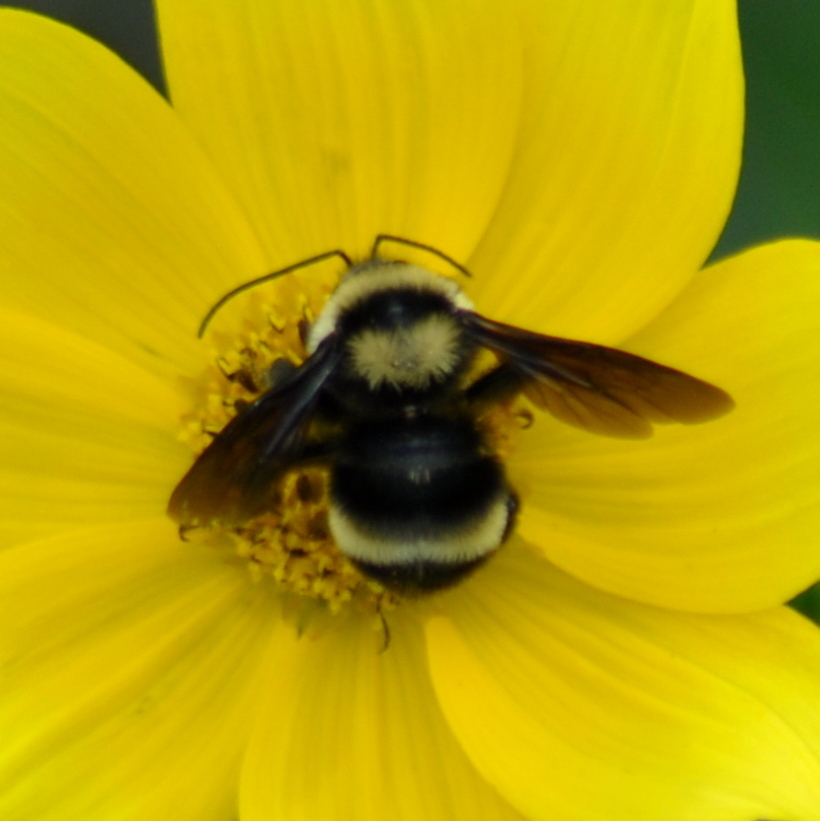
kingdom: Animalia
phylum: Arthropoda
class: Insecta
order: Hymenoptera
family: Apidae
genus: Bombus
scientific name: Bombus pauloensis
